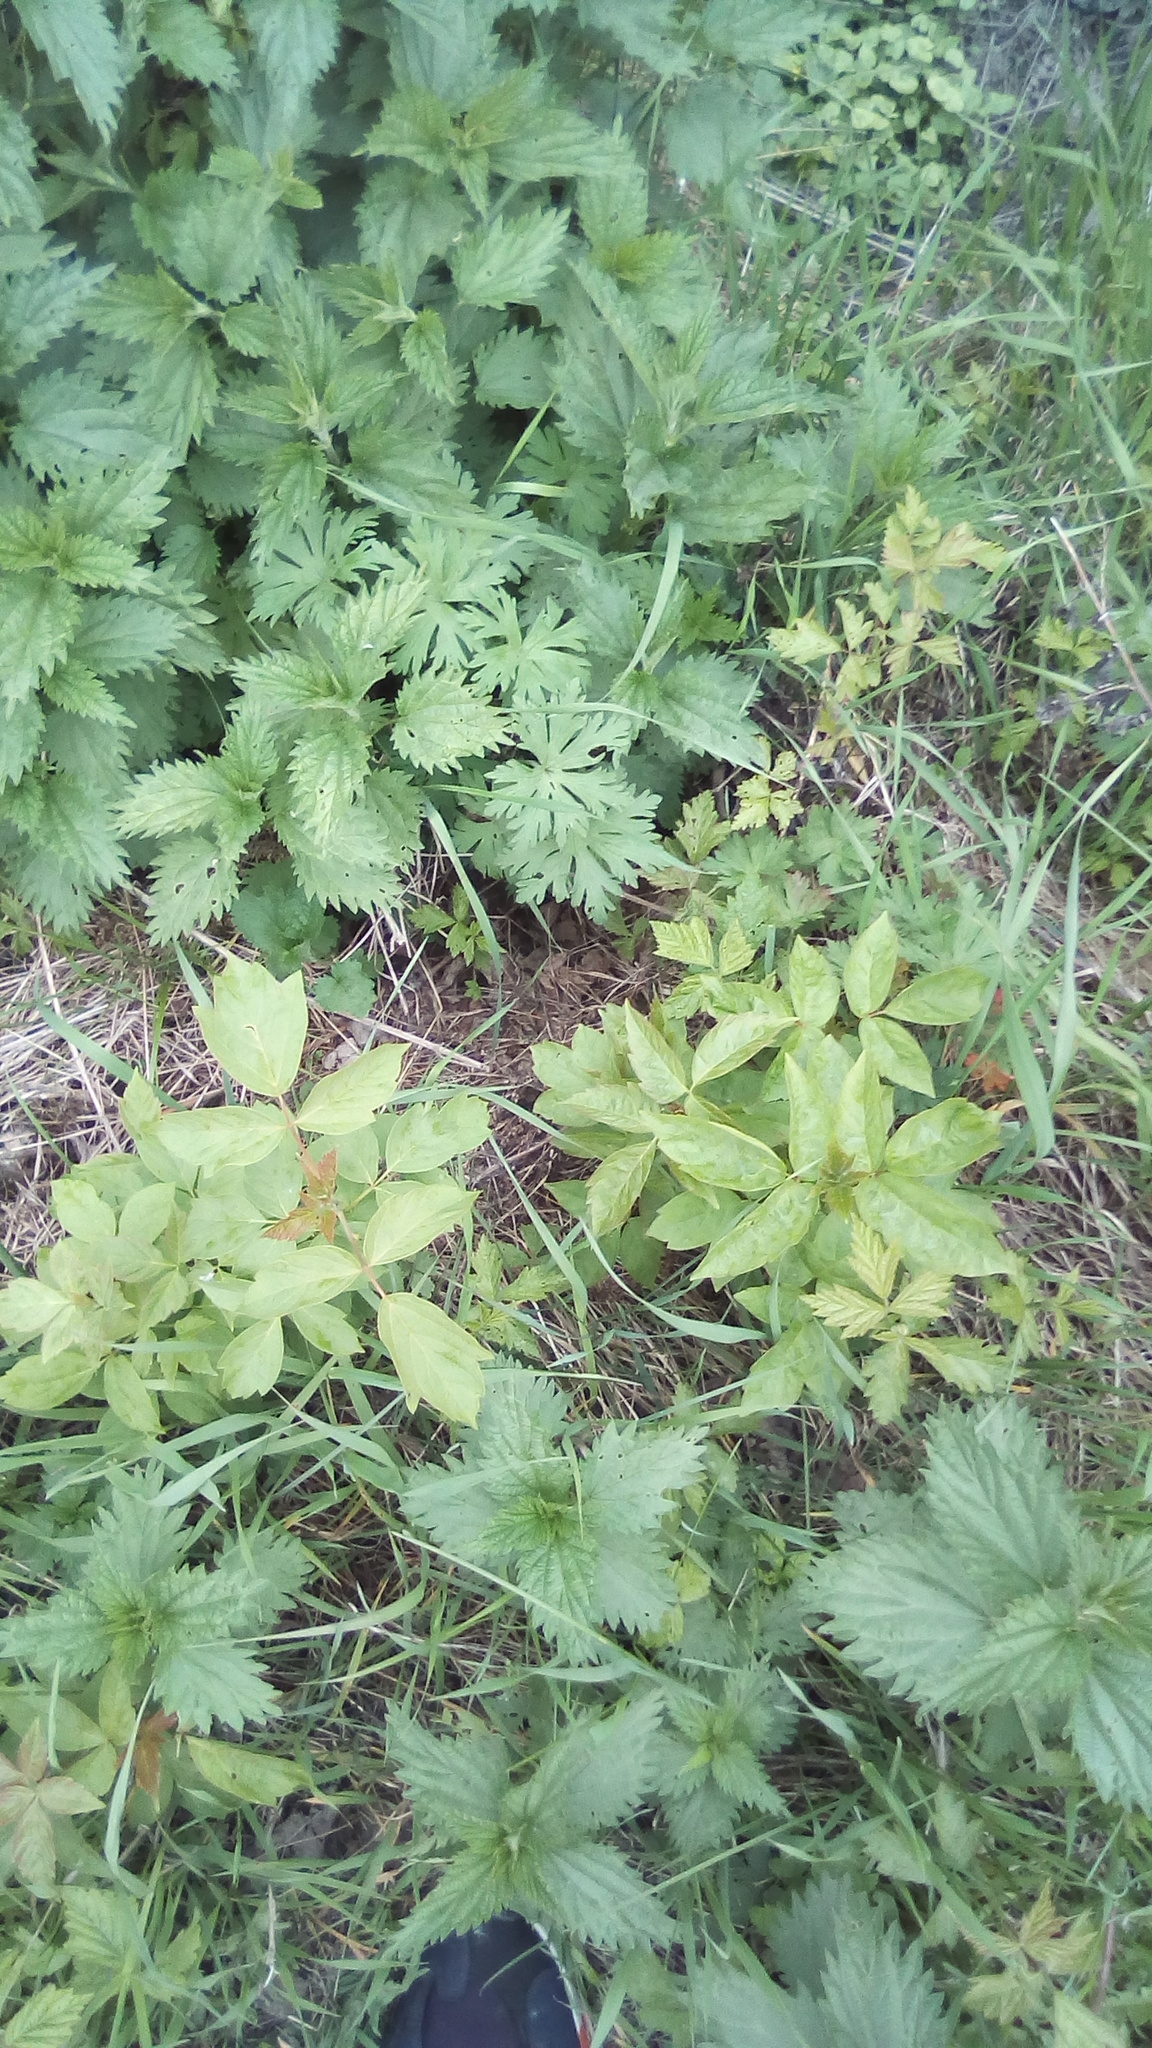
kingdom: Plantae
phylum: Tracheophyta
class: Magnoliopsida
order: Sapindales
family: Sapindaceae
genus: Acer
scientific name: Acer negundo
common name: Ashleaf maple
